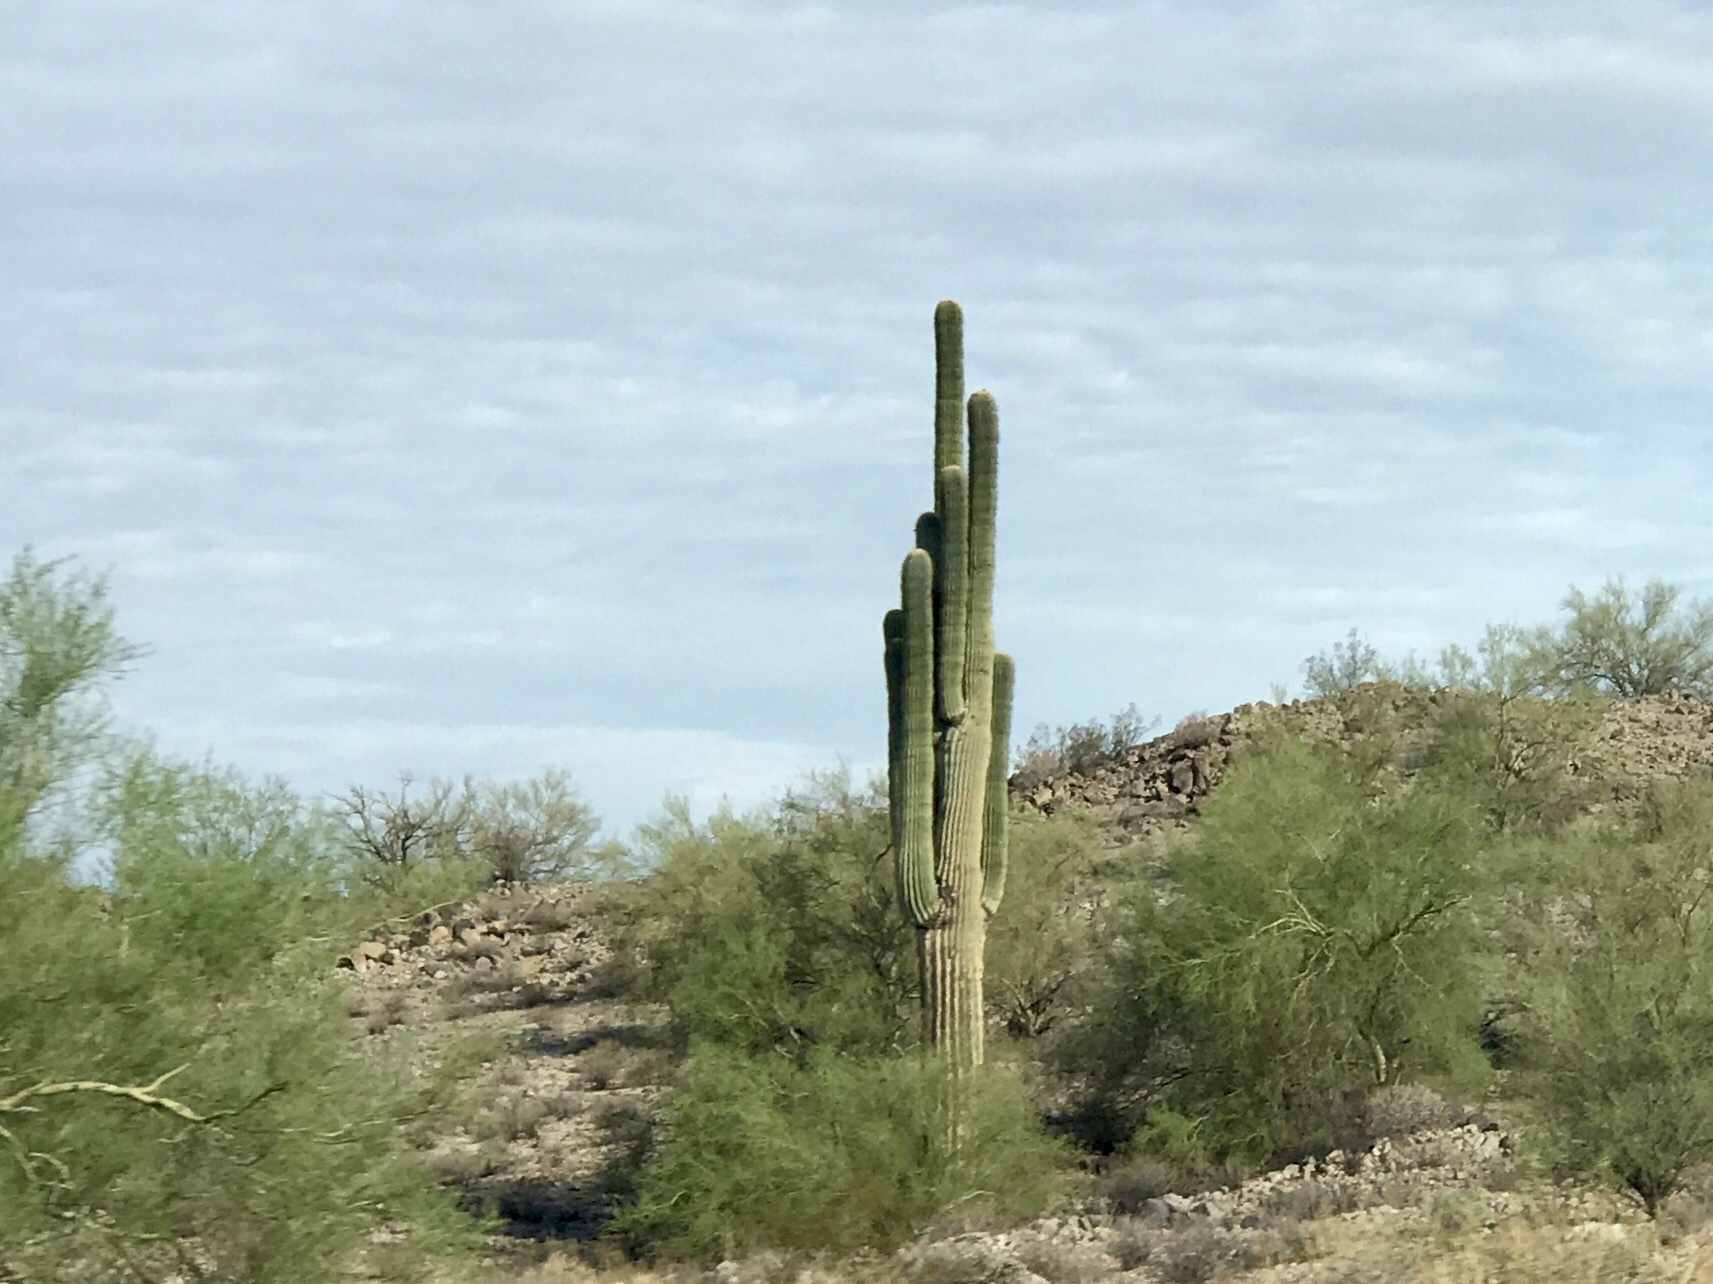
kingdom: Plantae
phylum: Tracheophyta
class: Magnoliopsida
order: Caryophyllales
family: Cactaceae
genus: Carnegiea
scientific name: Carnegiea gigantea
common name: Saguaro
